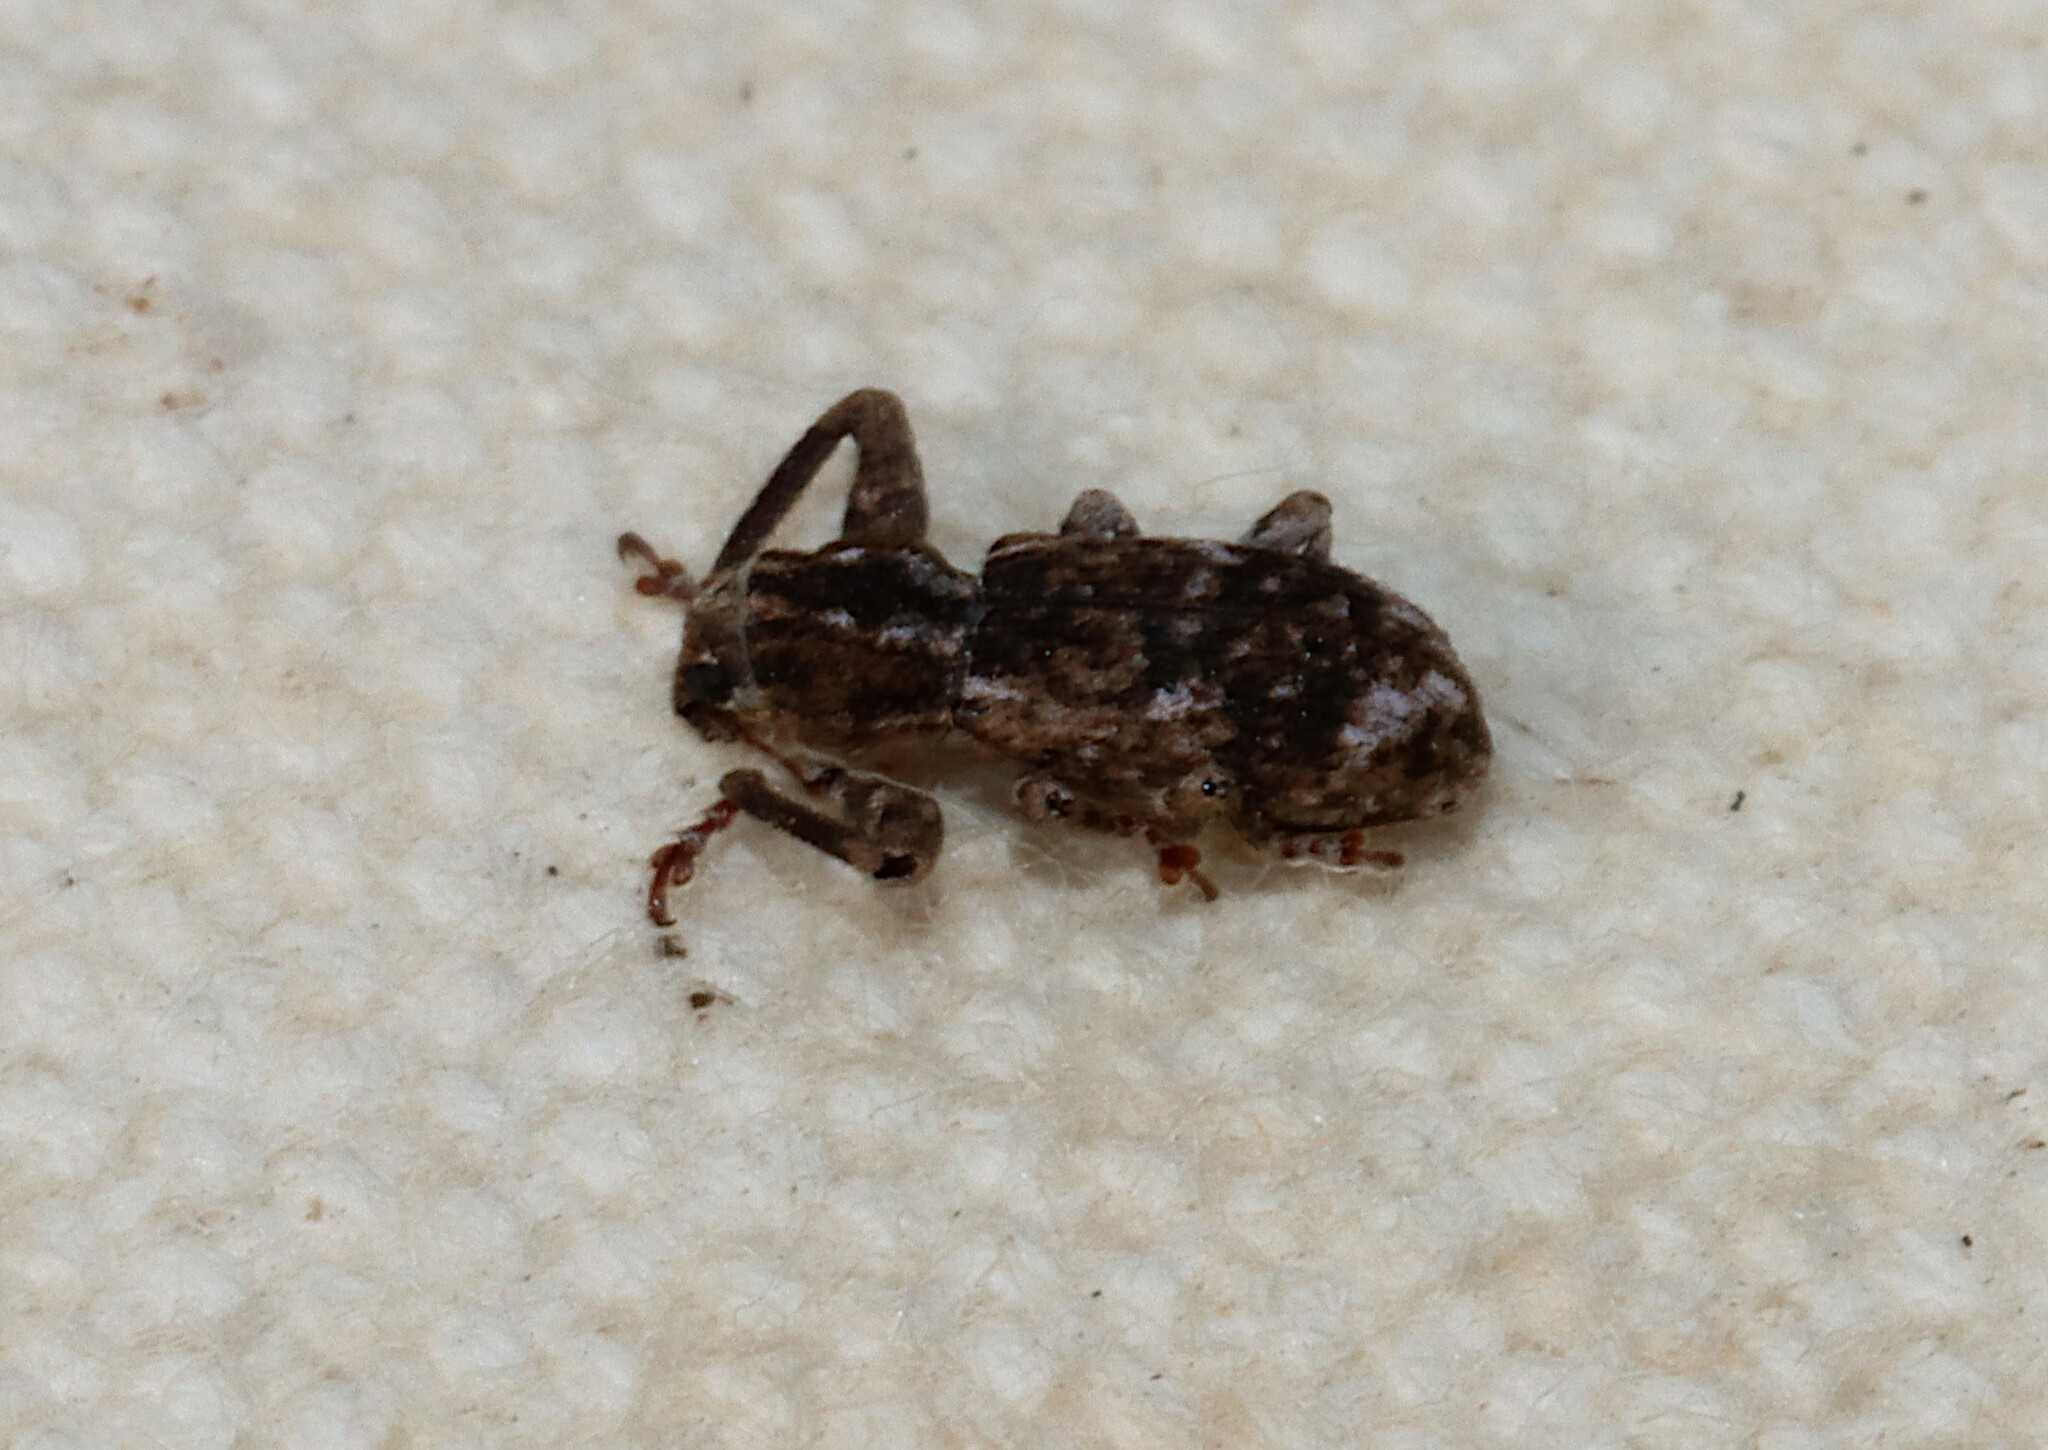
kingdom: Animalia
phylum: Arthropoda
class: Insecta
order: Coleoptera
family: Curculionidae
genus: Pandeleteius
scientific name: Pandeleteius hilaris
